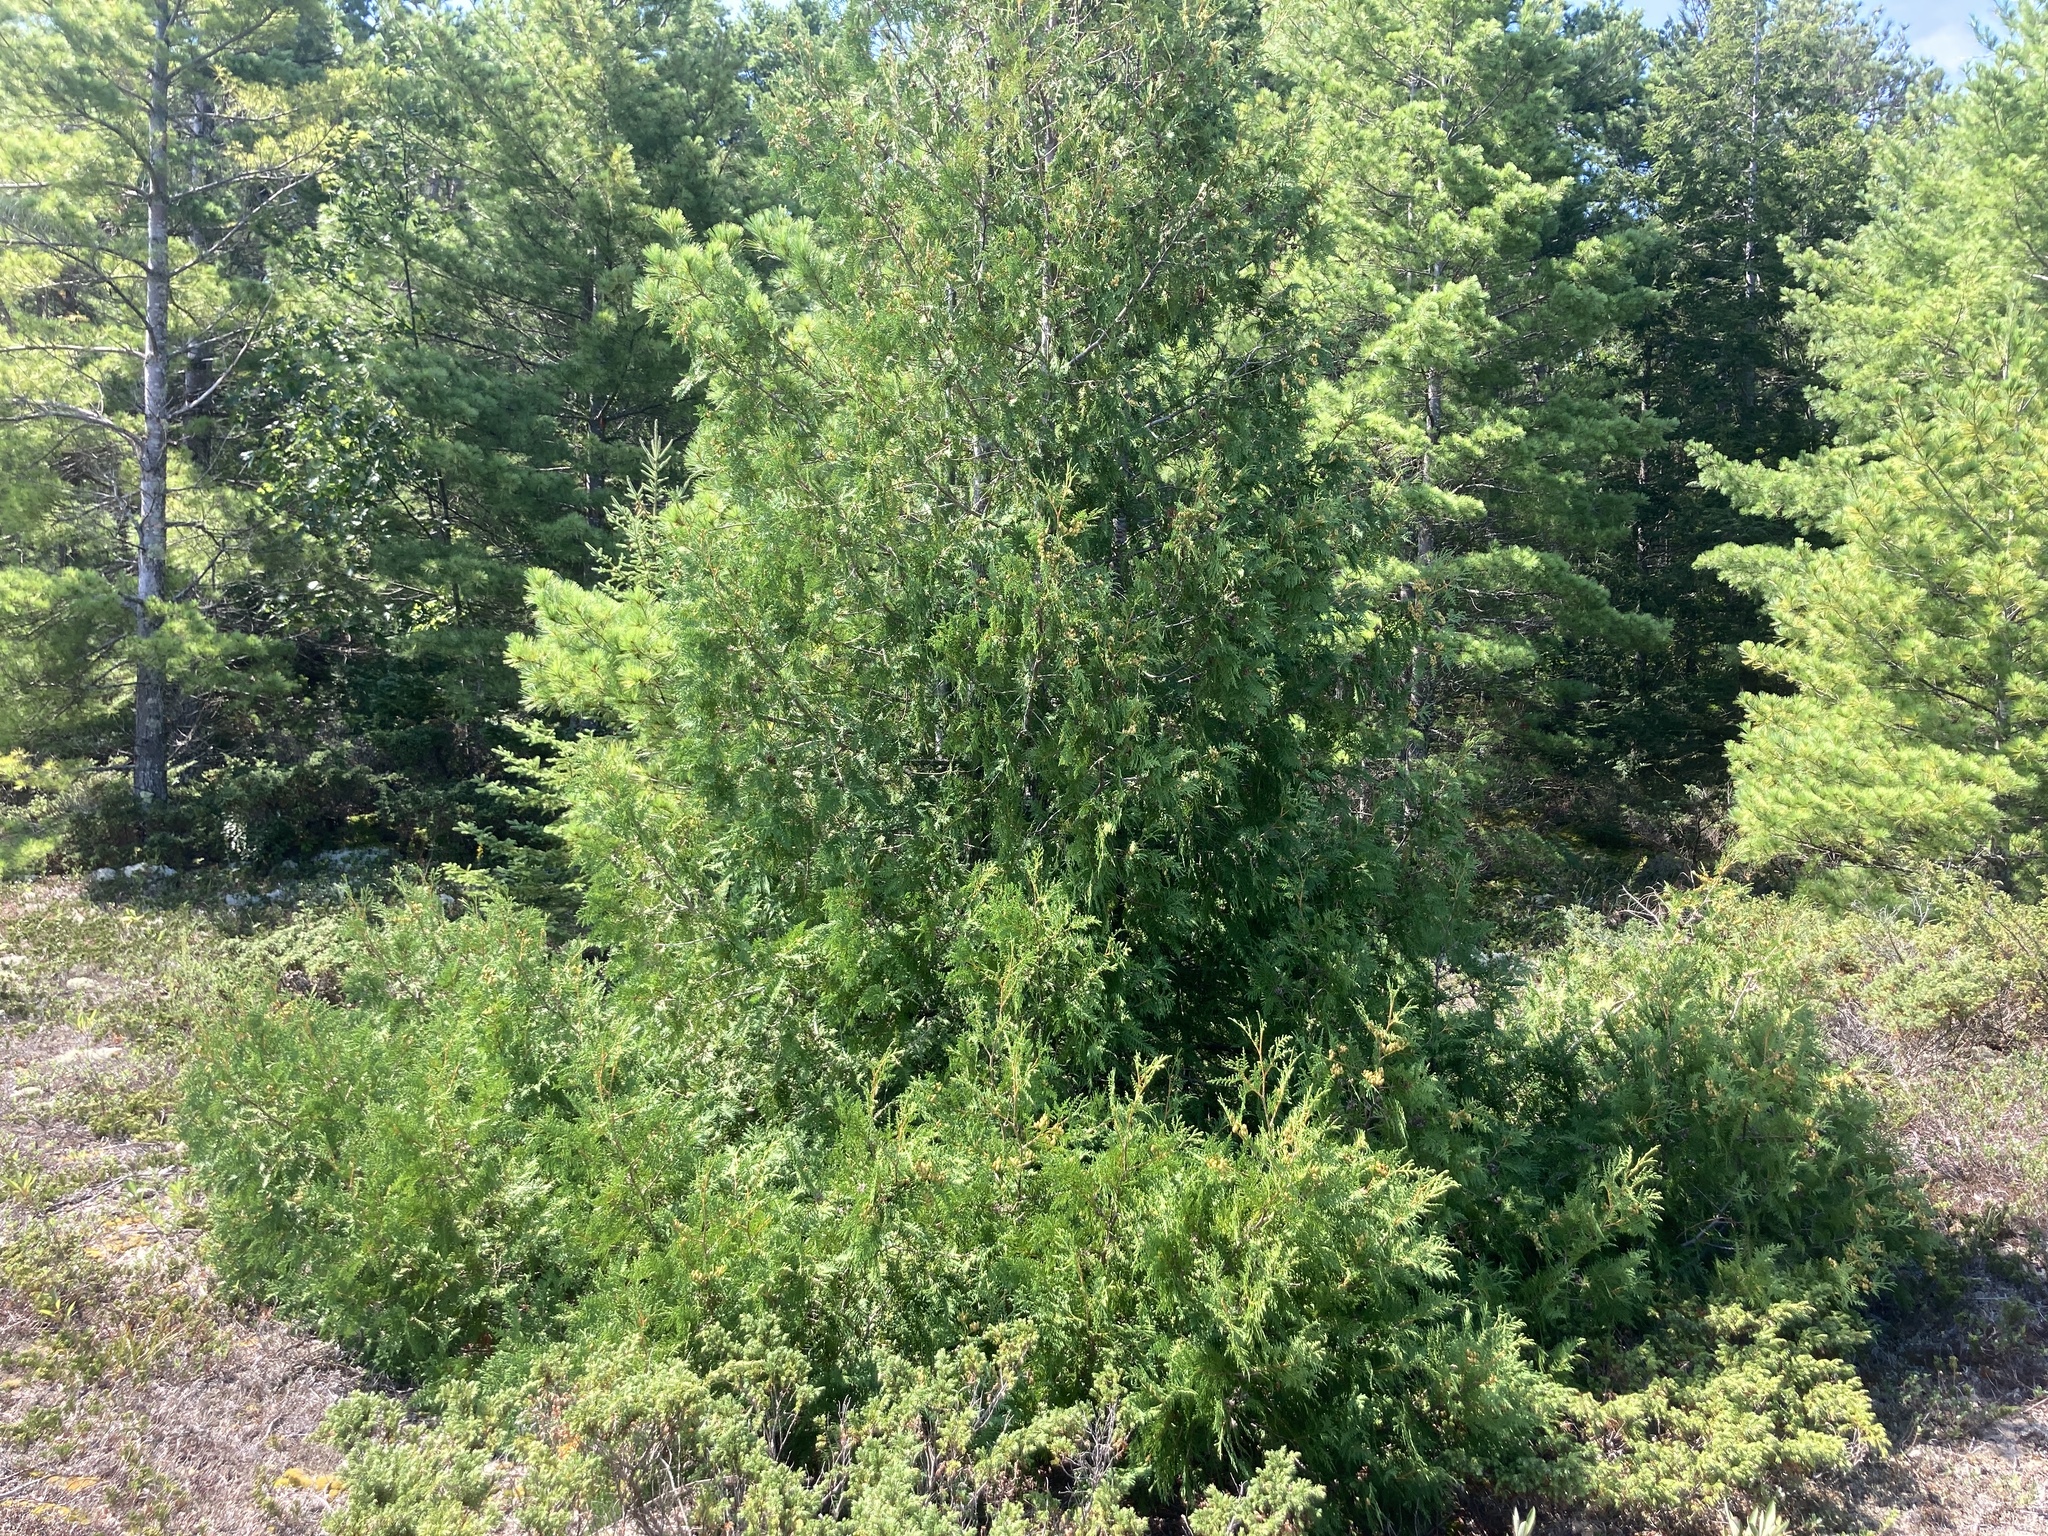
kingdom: Plantae
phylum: Tracheophyta
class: Pinopsida
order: Pinales
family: Cupressaceae
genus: Thuja
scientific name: Thuja occidentalis
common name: Northern white-cedar
